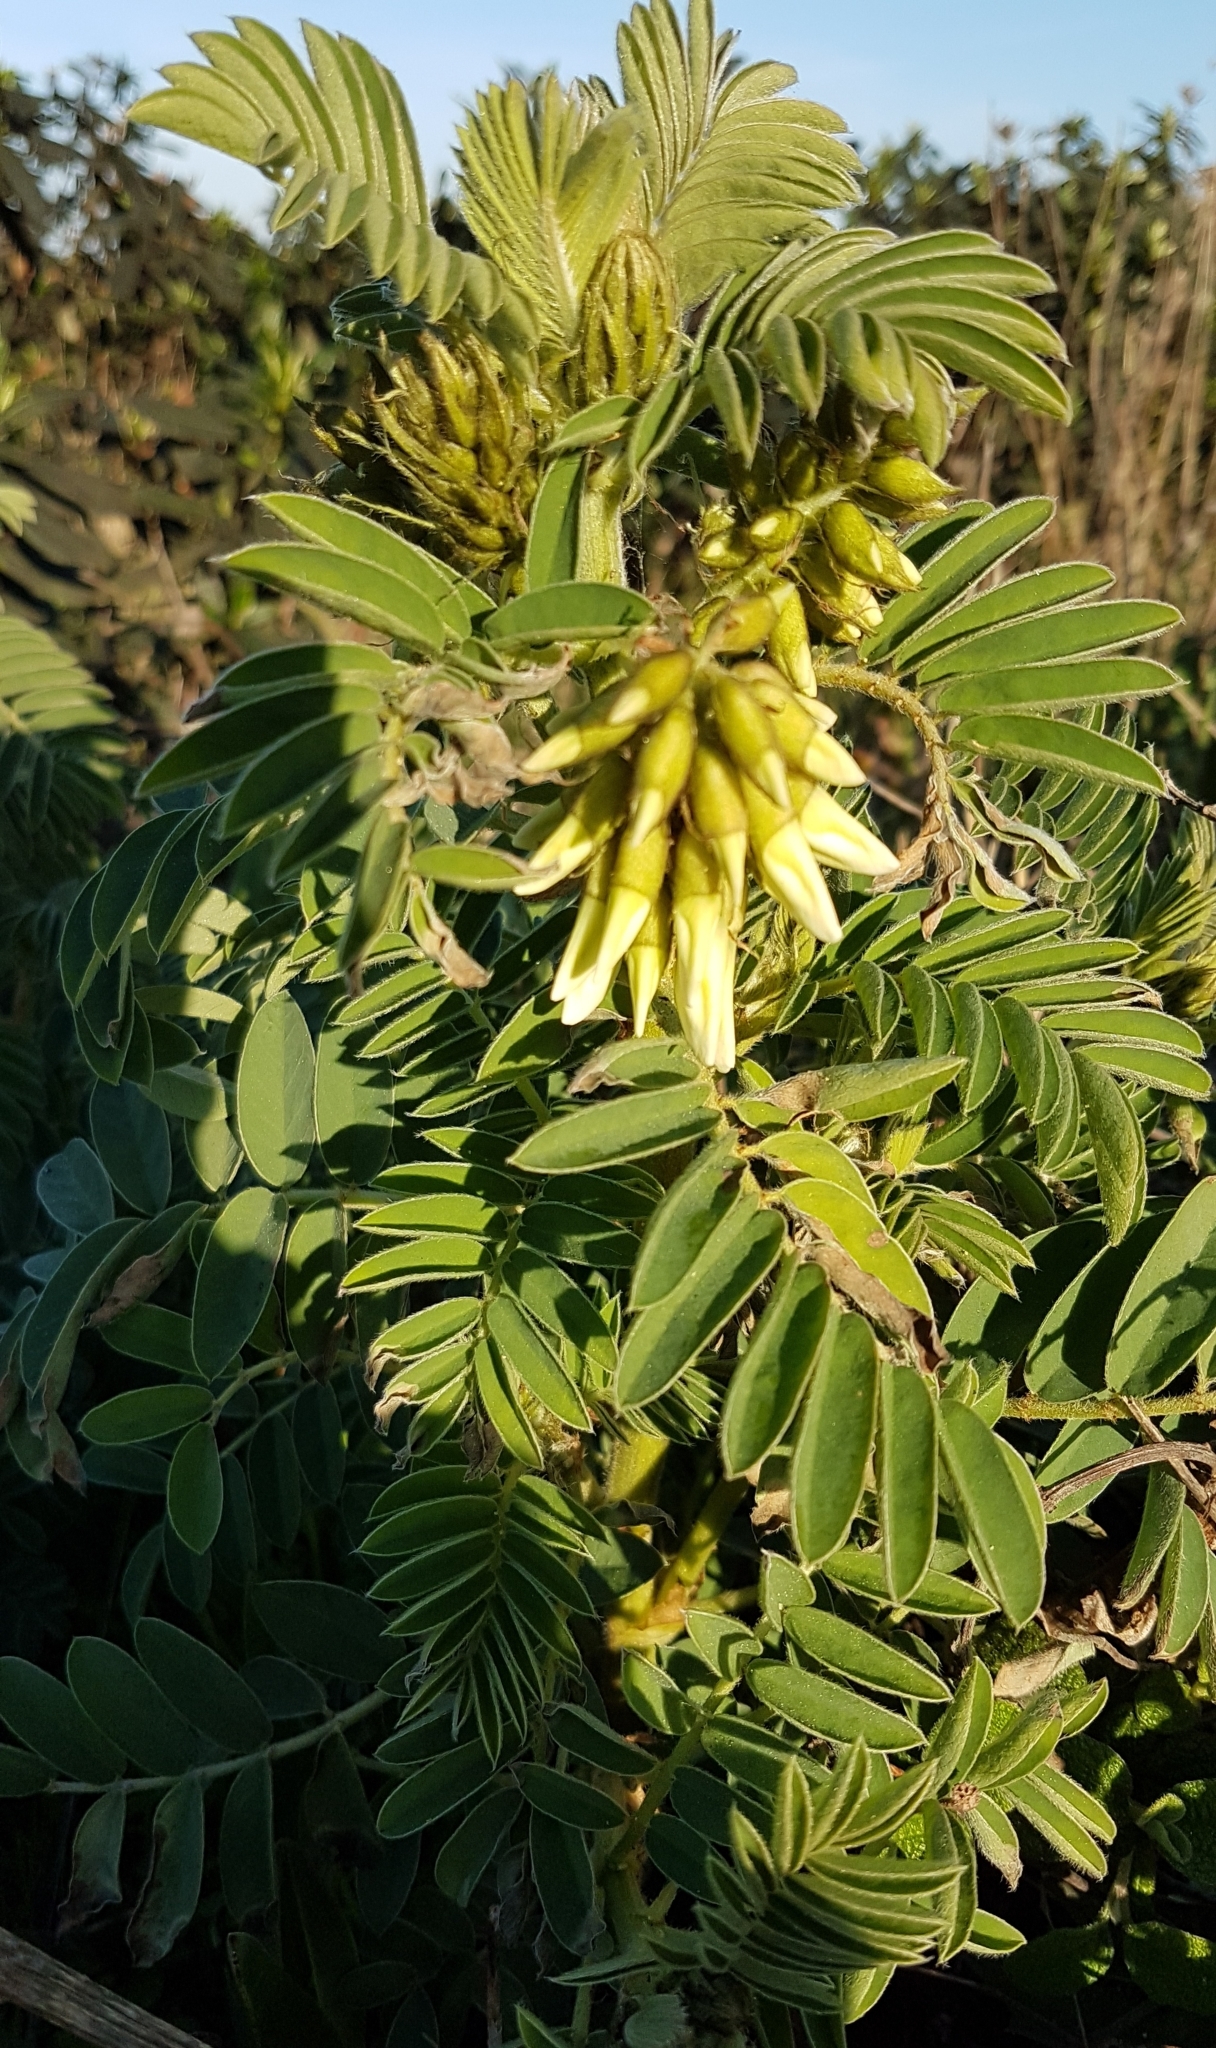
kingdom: Plantae
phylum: Tracheophyta
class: Magnoliopsida
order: Fabales
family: Fabaceae
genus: Erophaca
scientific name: Erophaca baetica
